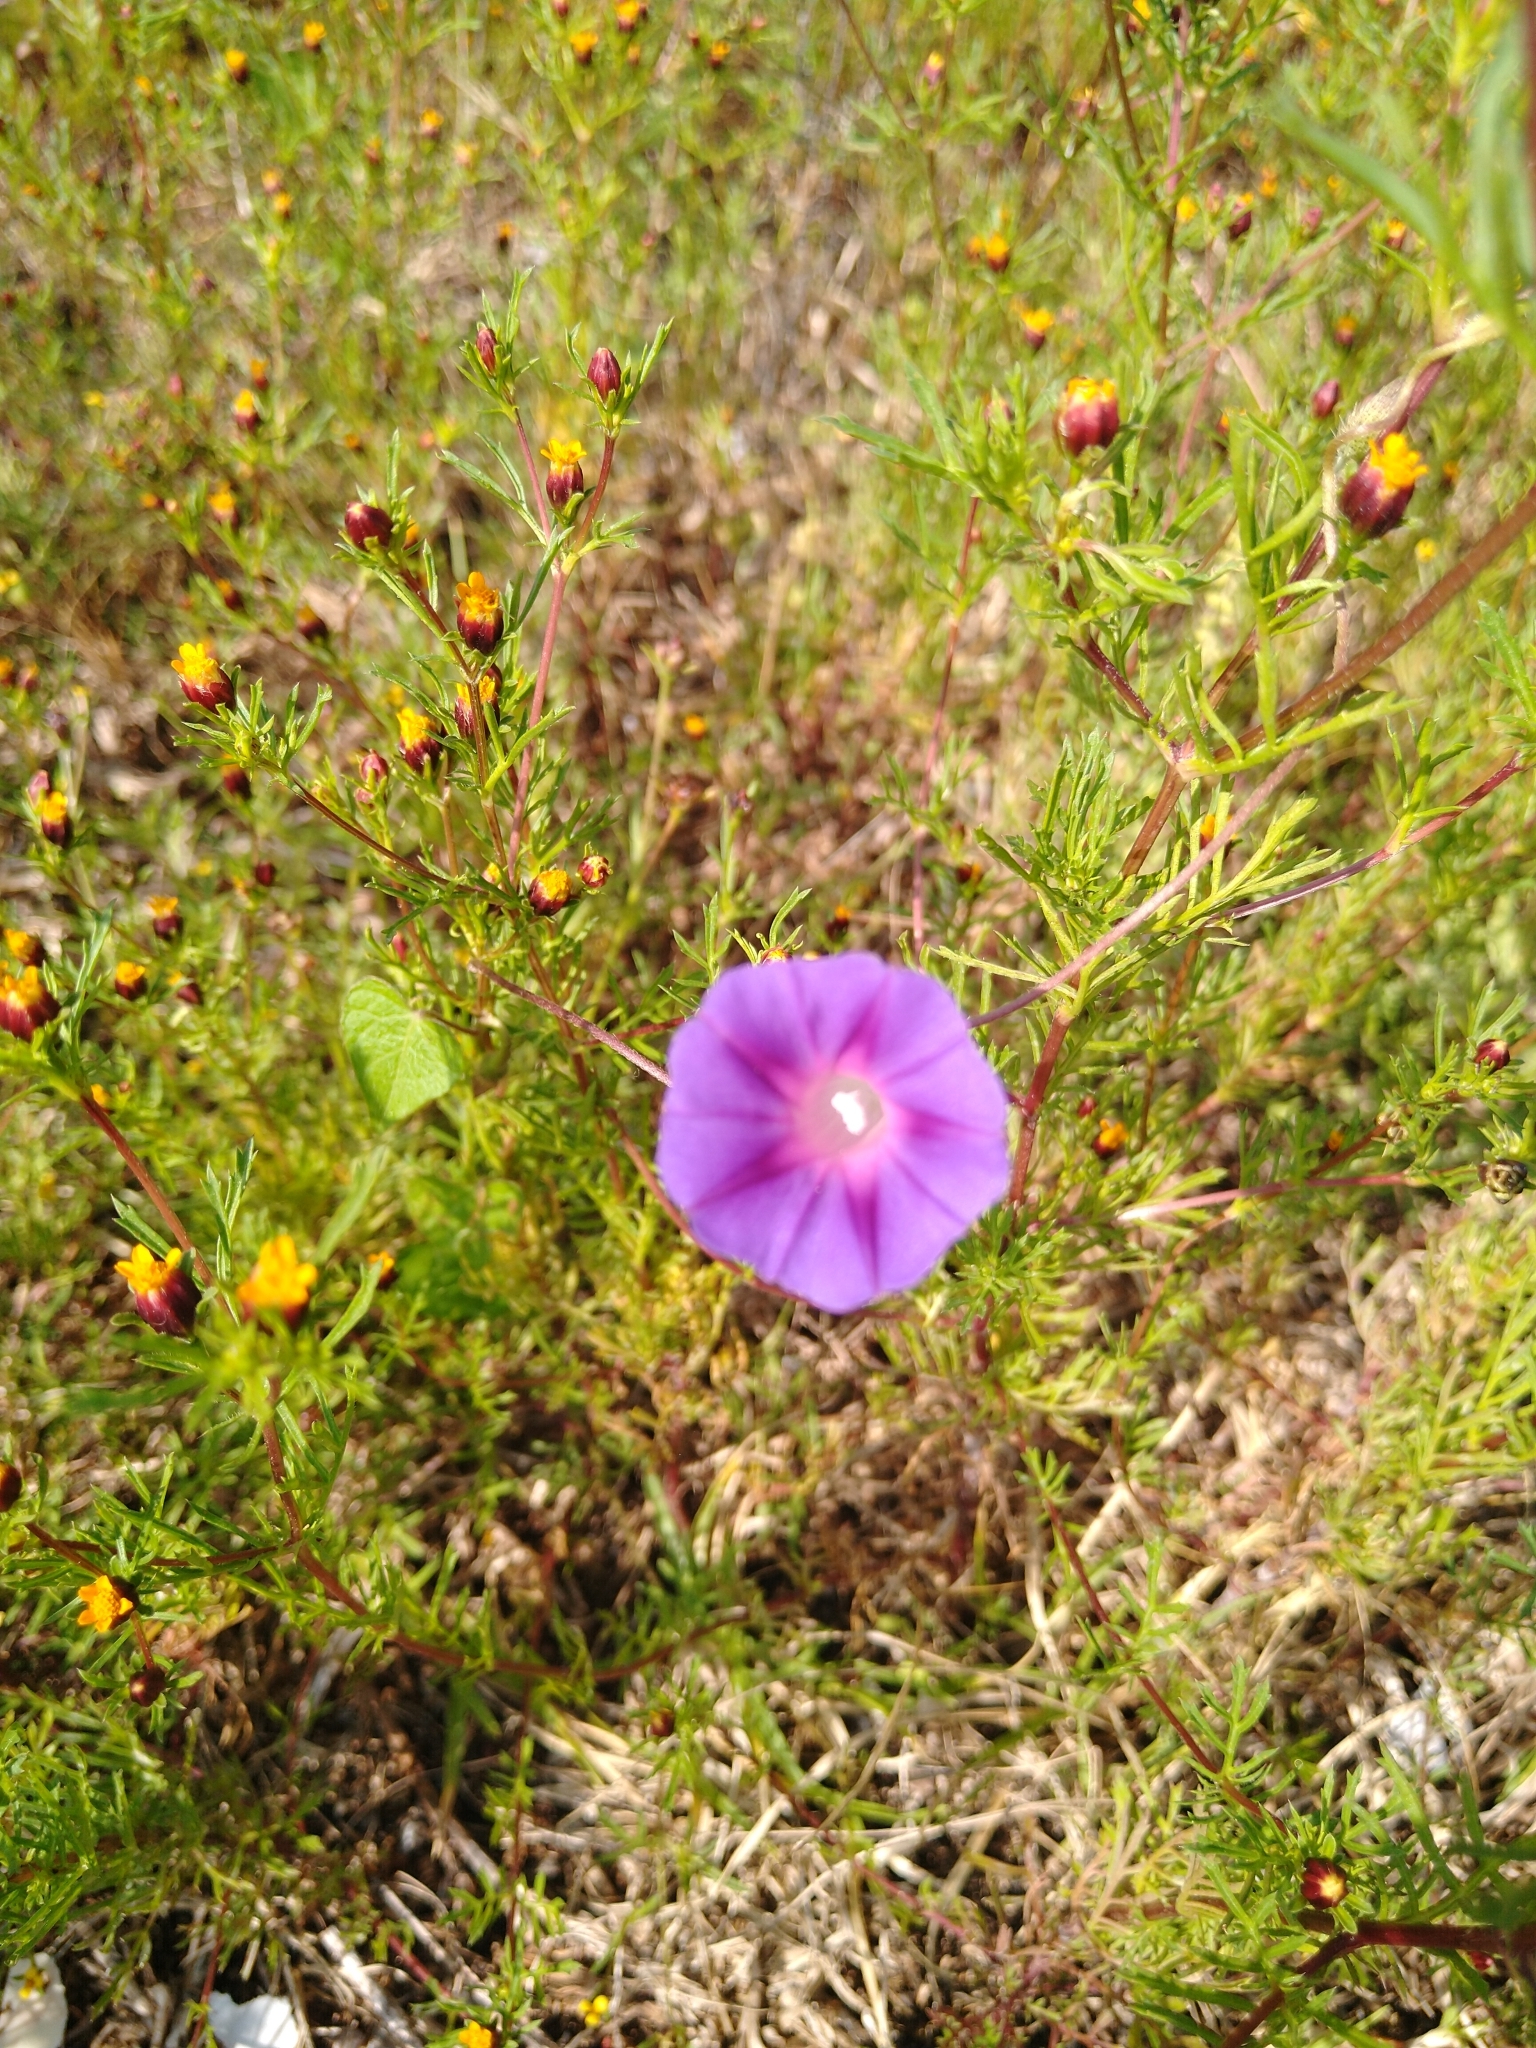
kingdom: Plantae
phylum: Tracheophyta
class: Magnoliopsida
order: Solanales
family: Convolvulaceae
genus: Ipomoea
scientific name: Ipomoea purpurea
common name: Common morning-glory
